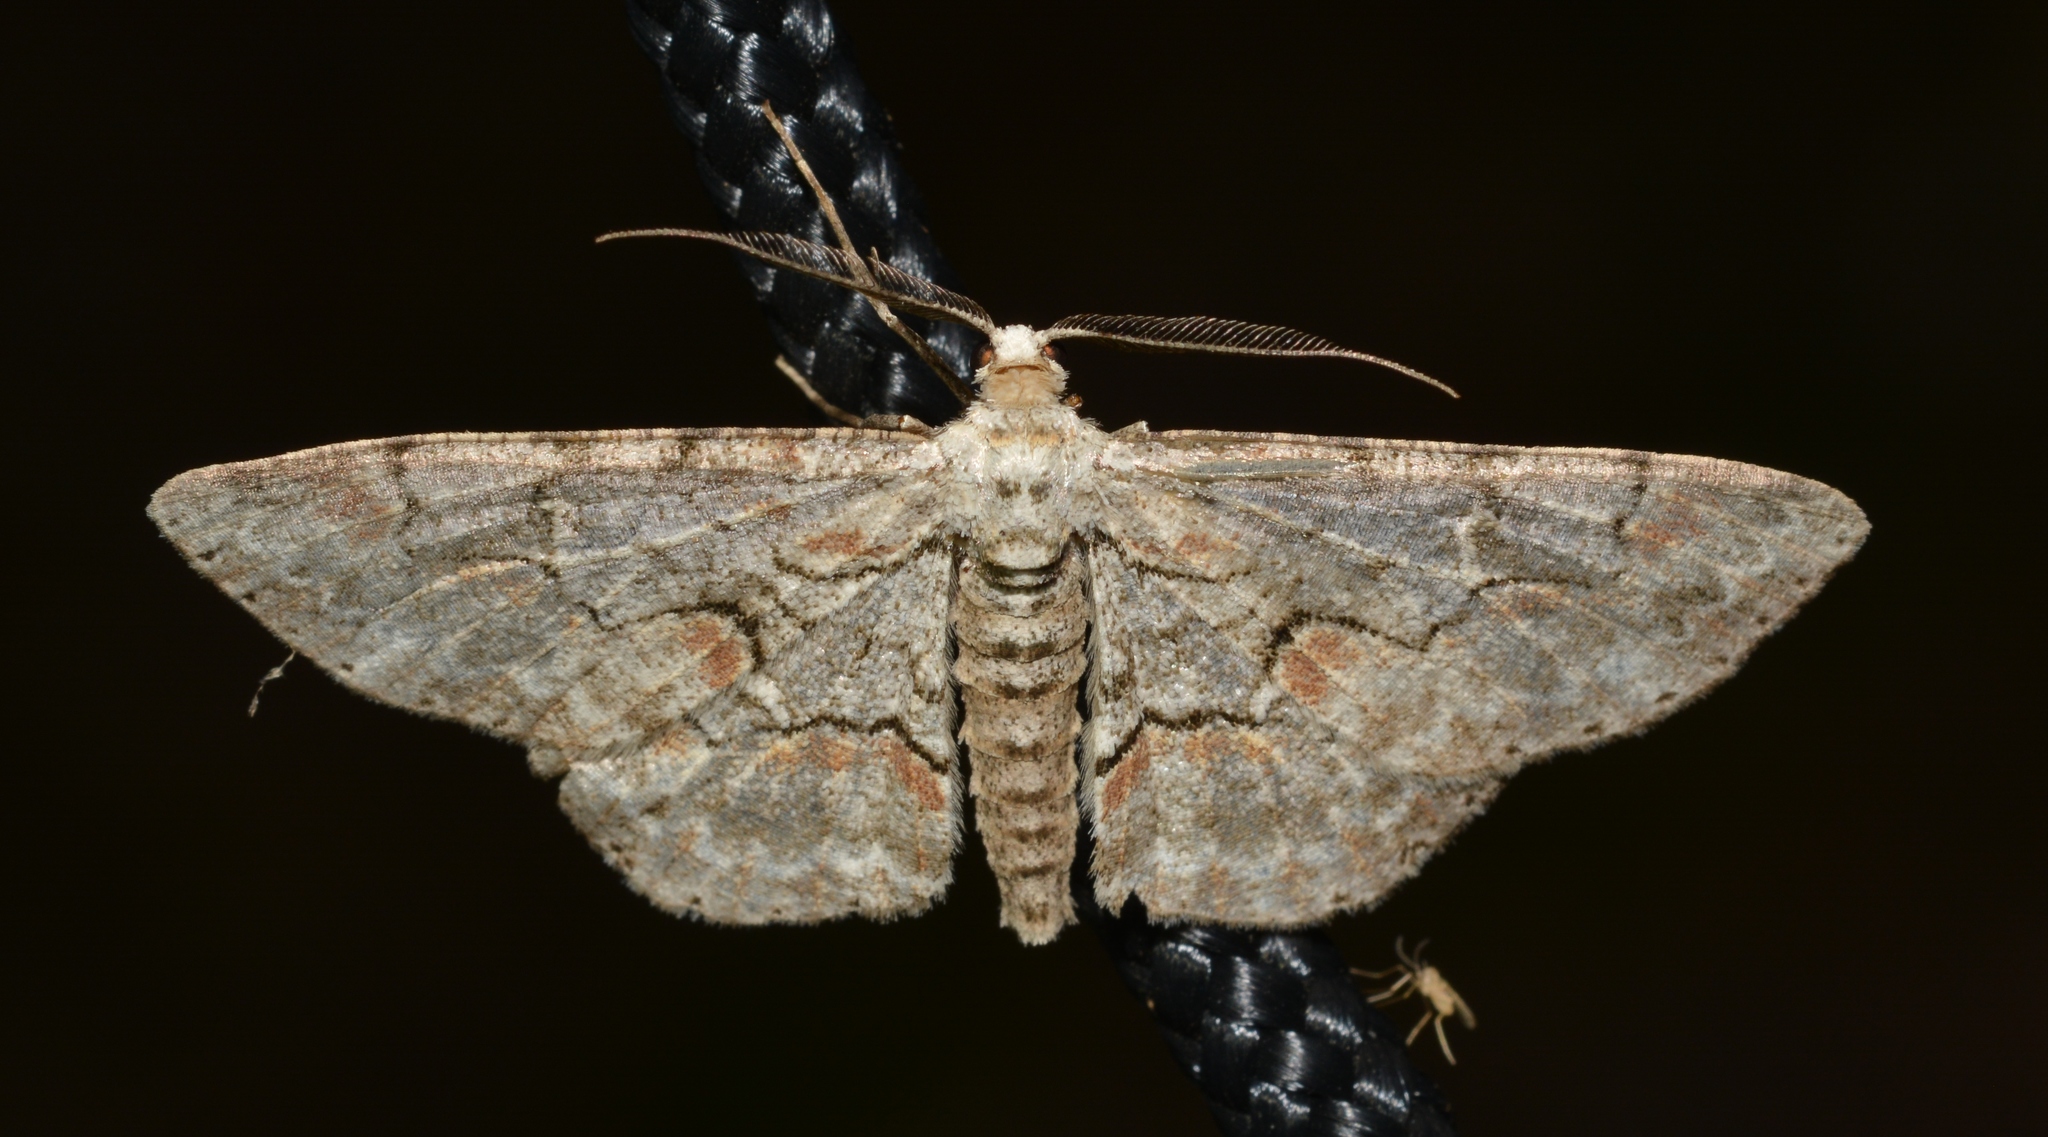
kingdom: Animalia
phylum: Arthropoda
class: Insecta
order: Lepidoptera
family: Geometridae
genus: Iridopsis
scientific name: Iridopsis defectaria
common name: Brown-shaded gray
